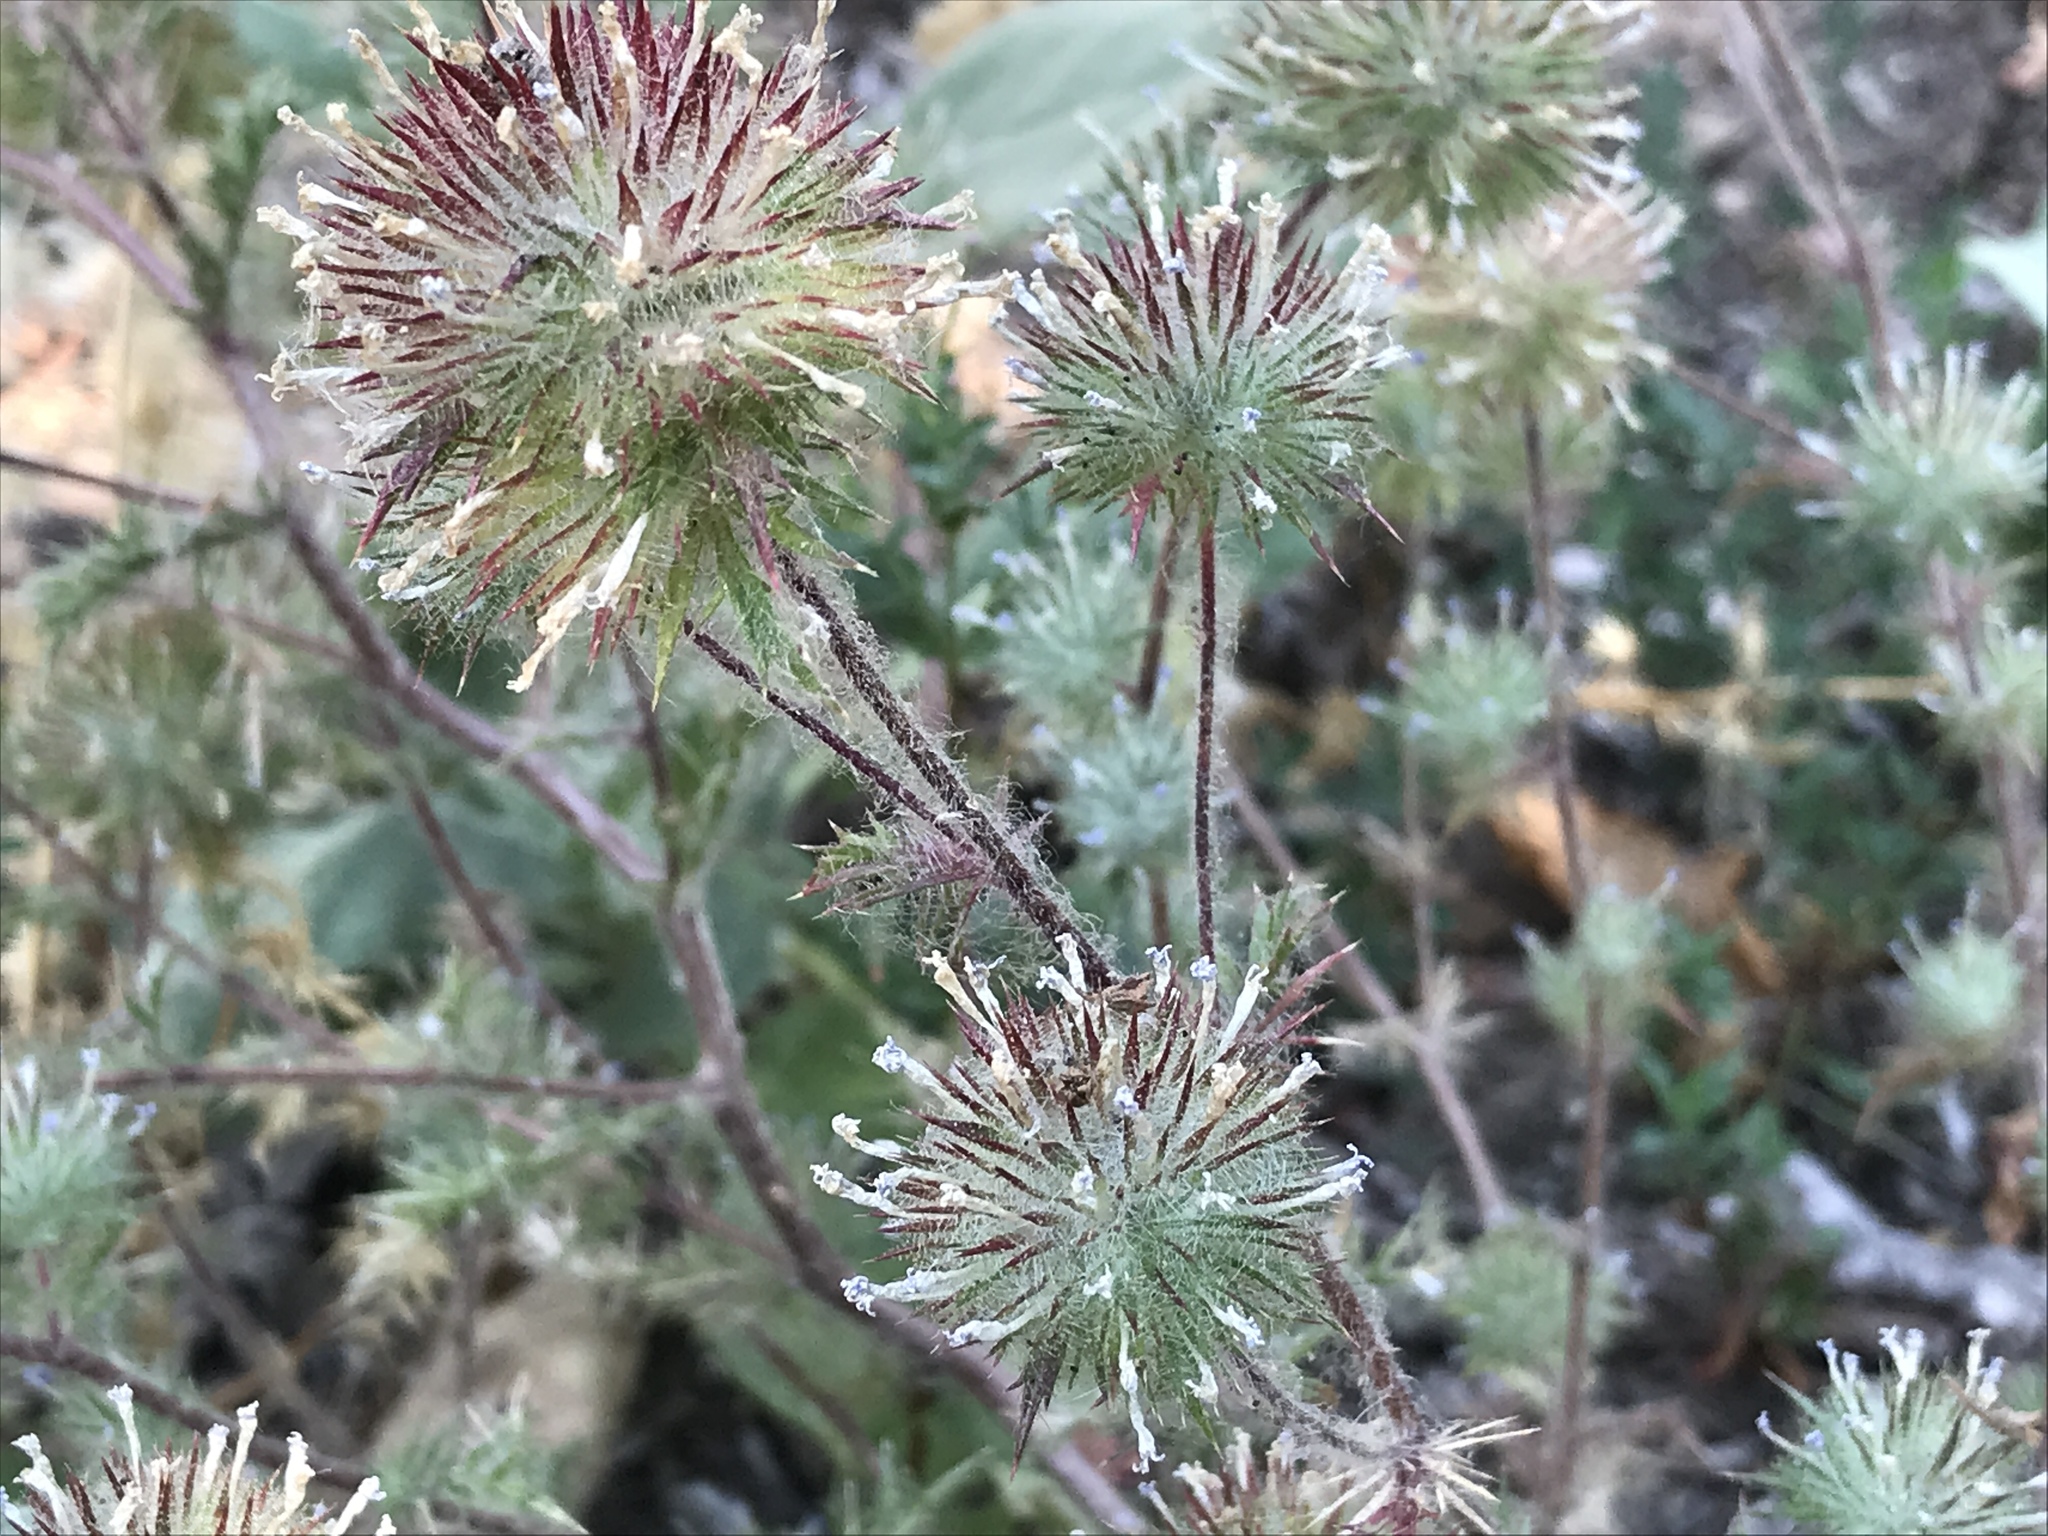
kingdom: Plantae
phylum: Tracheophyta
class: Magnoliopsida
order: Ericales
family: Polemoniaceae
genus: Navarretia
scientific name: Navarretia squarrosa
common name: Skunkweed
